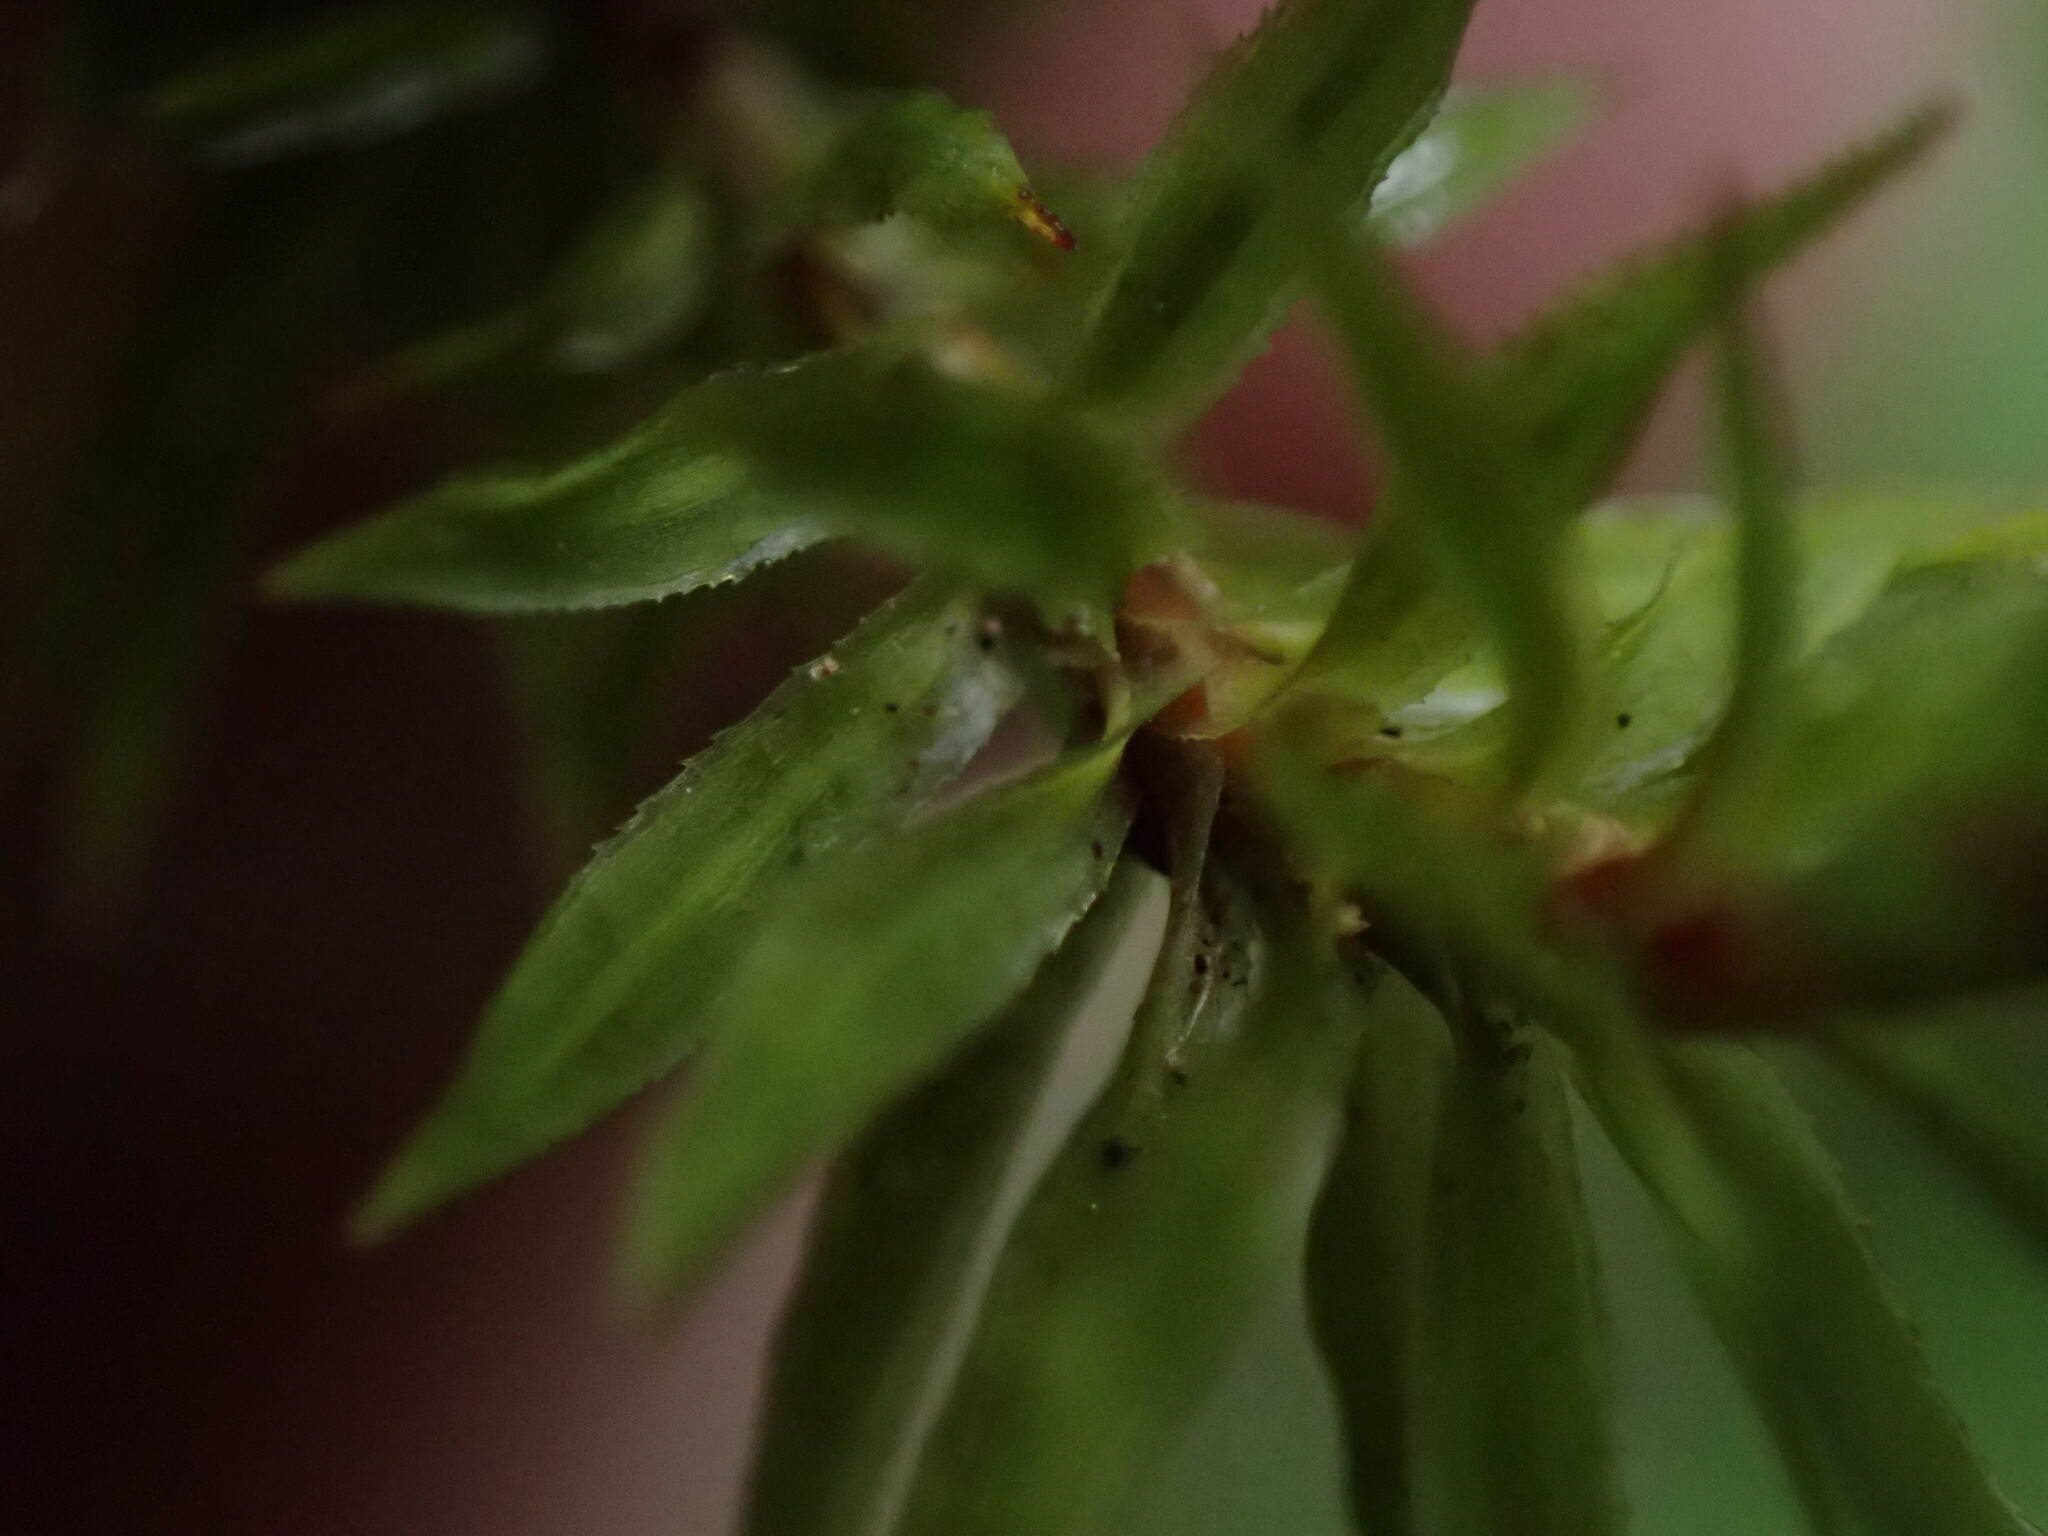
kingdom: Plantae
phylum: Bryophyta
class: Polytrichopsida
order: Polytrichales
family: Polytrichaceae
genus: Pogonatum
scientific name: Pogonatum contortum
